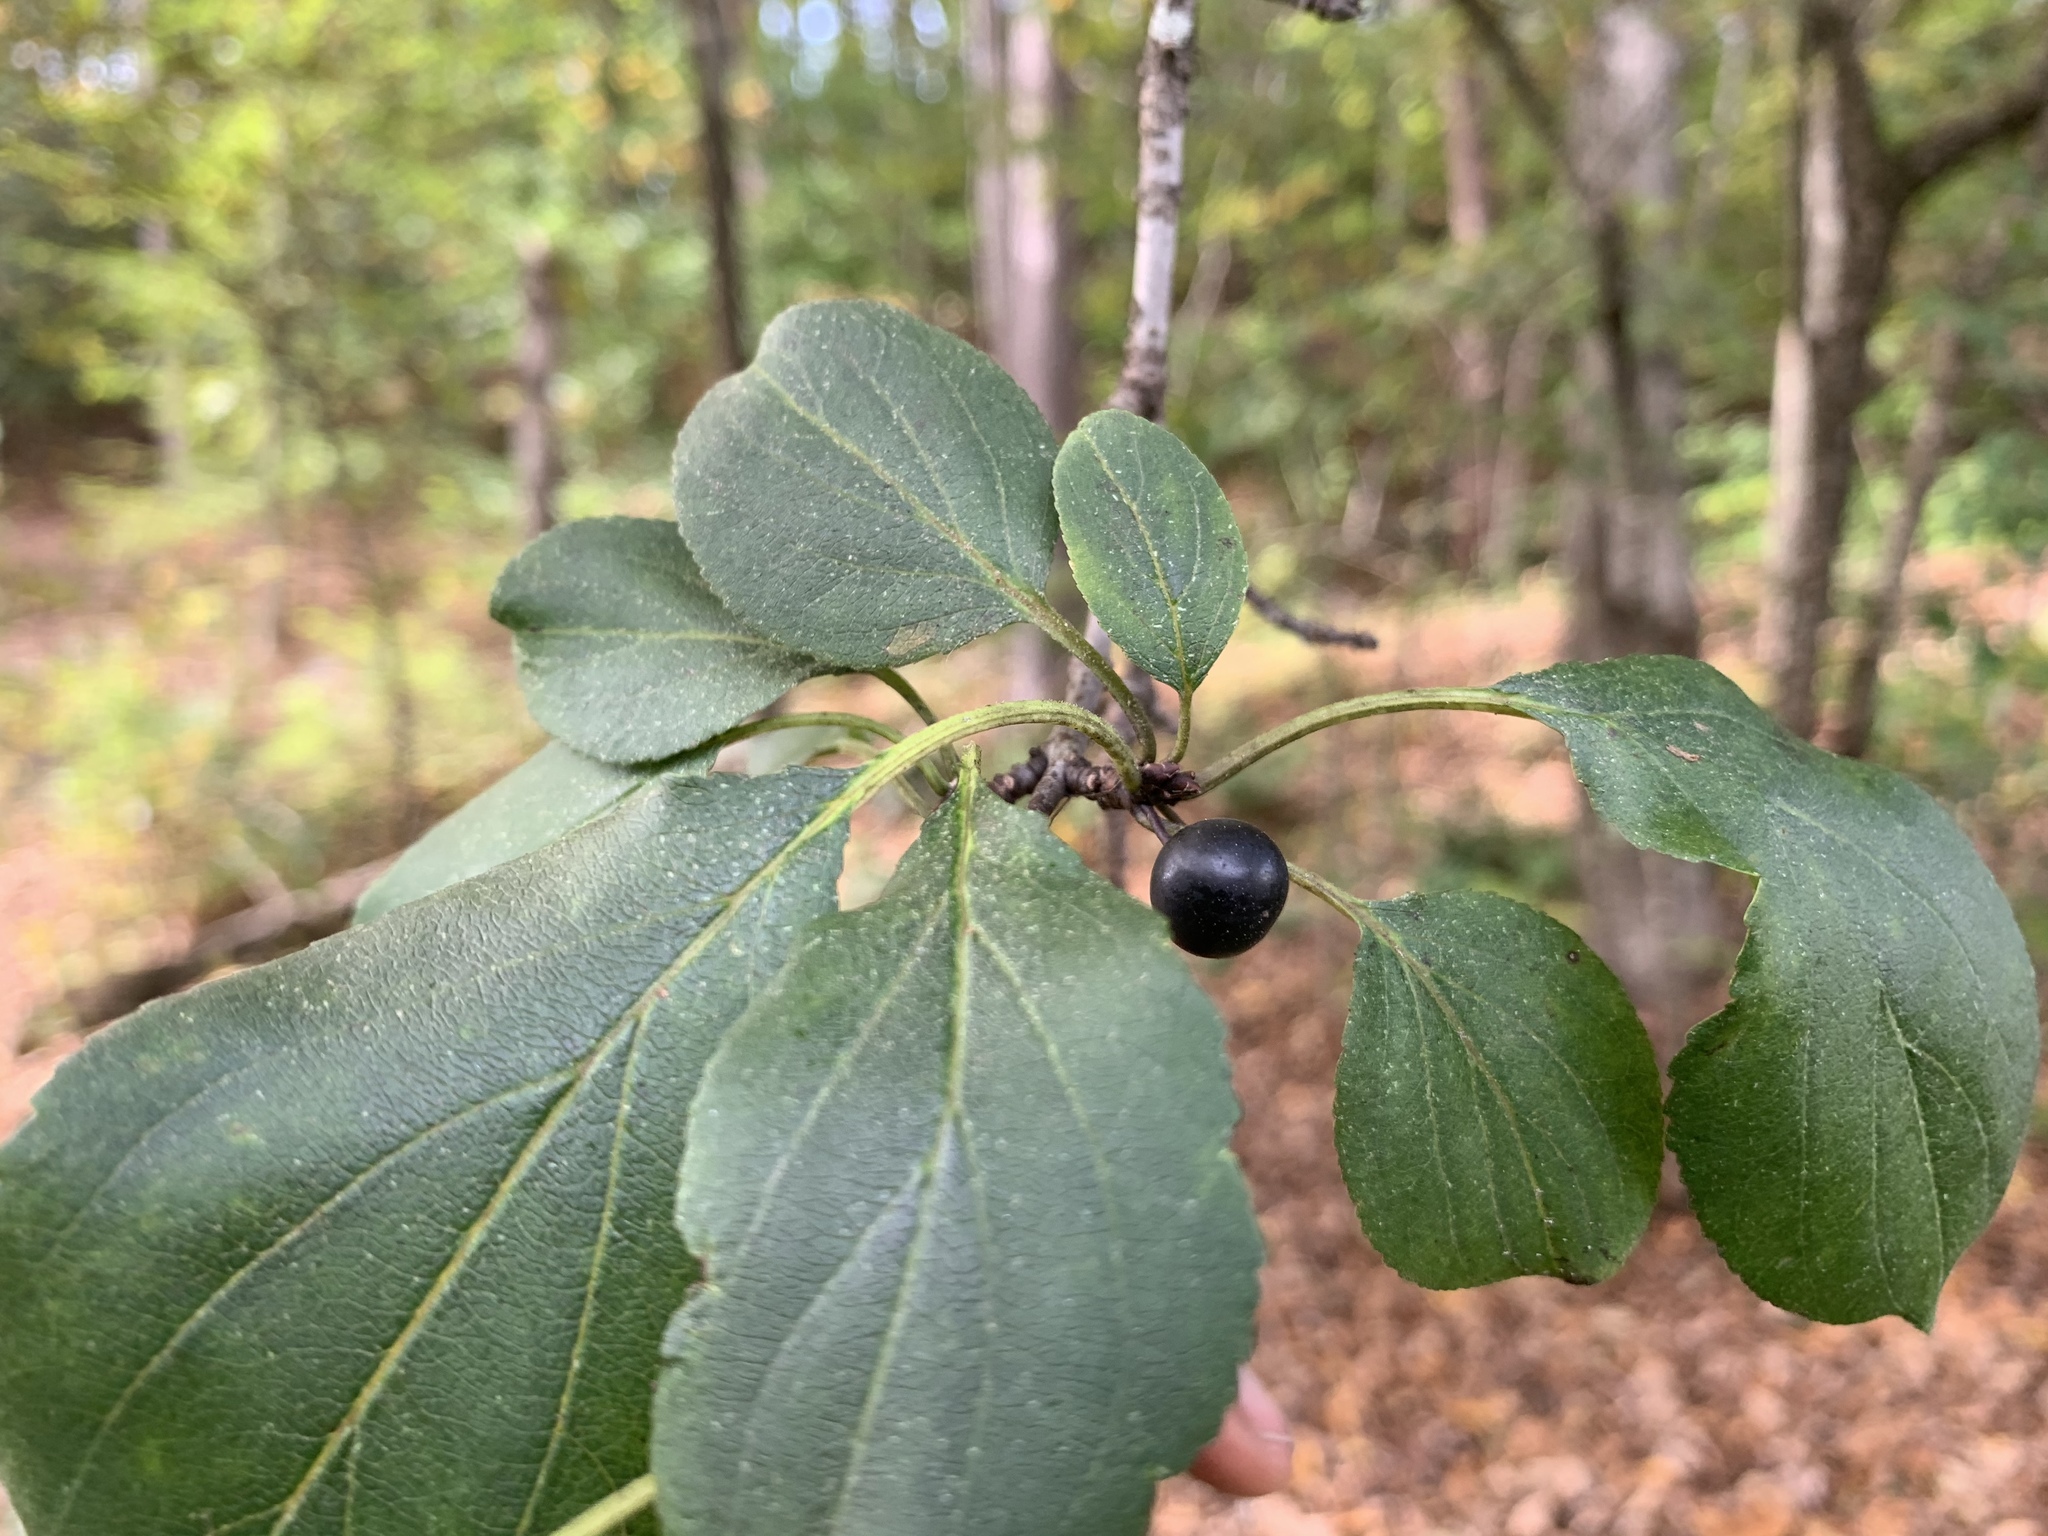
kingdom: Plantae
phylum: Tracheophyta
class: Magnoliopsida
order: Rosales
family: Rhamnaceae
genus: Rhamnus
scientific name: Rhamnus cathartica
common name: Common buckthorn
